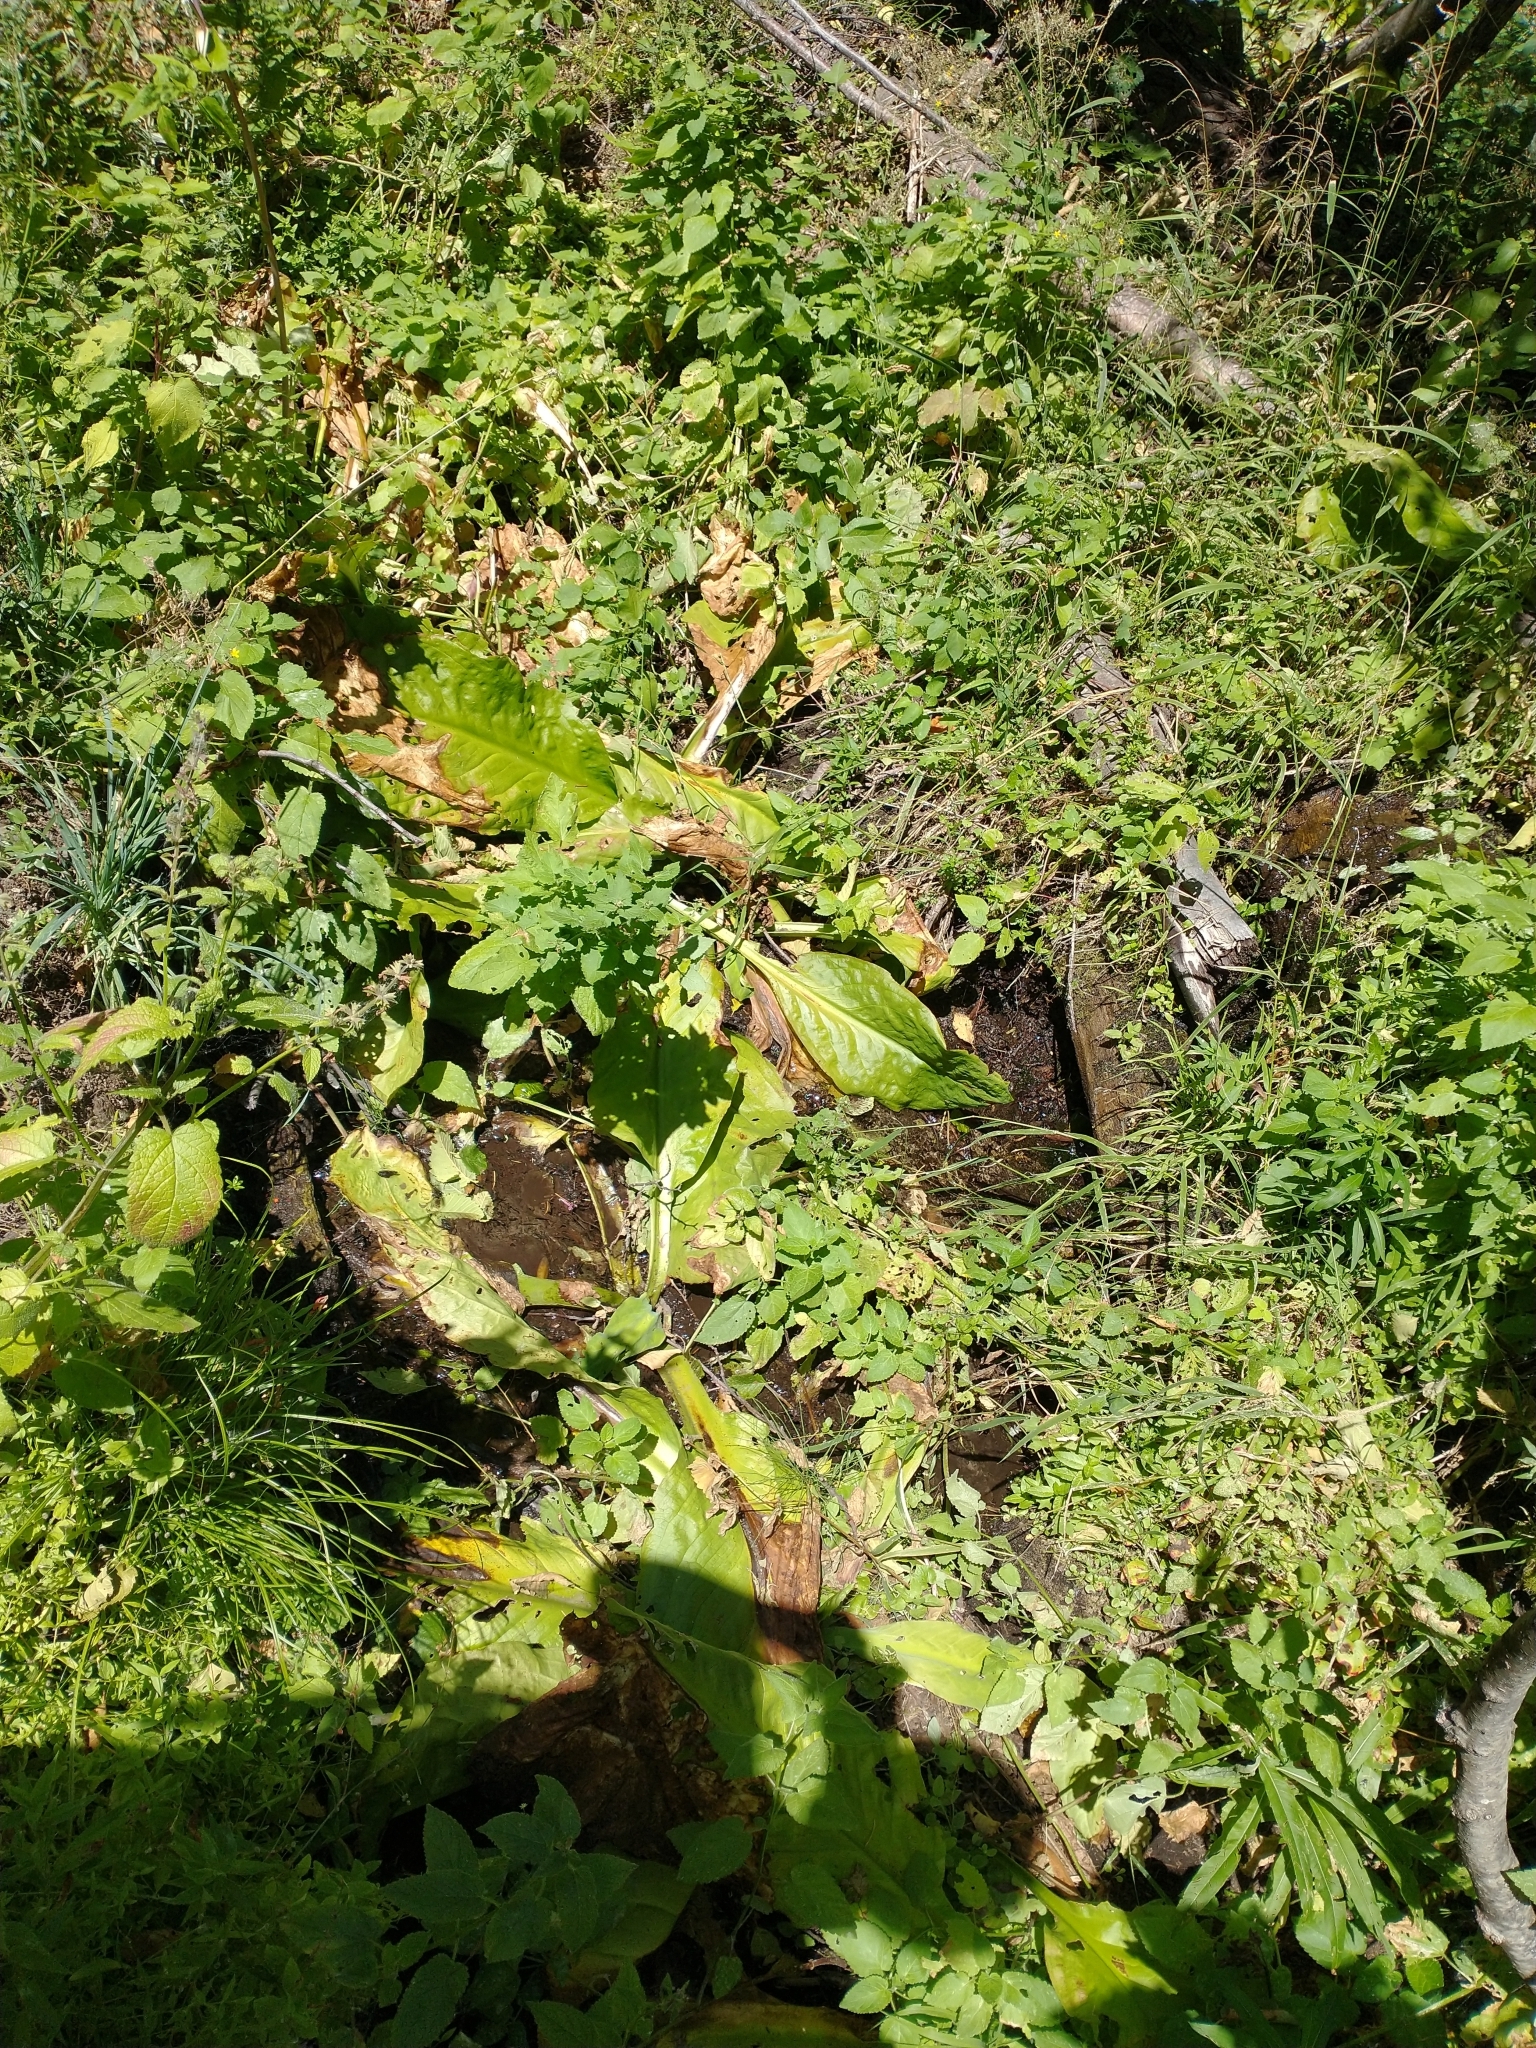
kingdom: Plantae
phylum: Tracheophyta
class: Liliopsida
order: Alismatales
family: Araceae
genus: Lysichiton
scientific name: Lysichiton americanus
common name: American skunk cabbage
